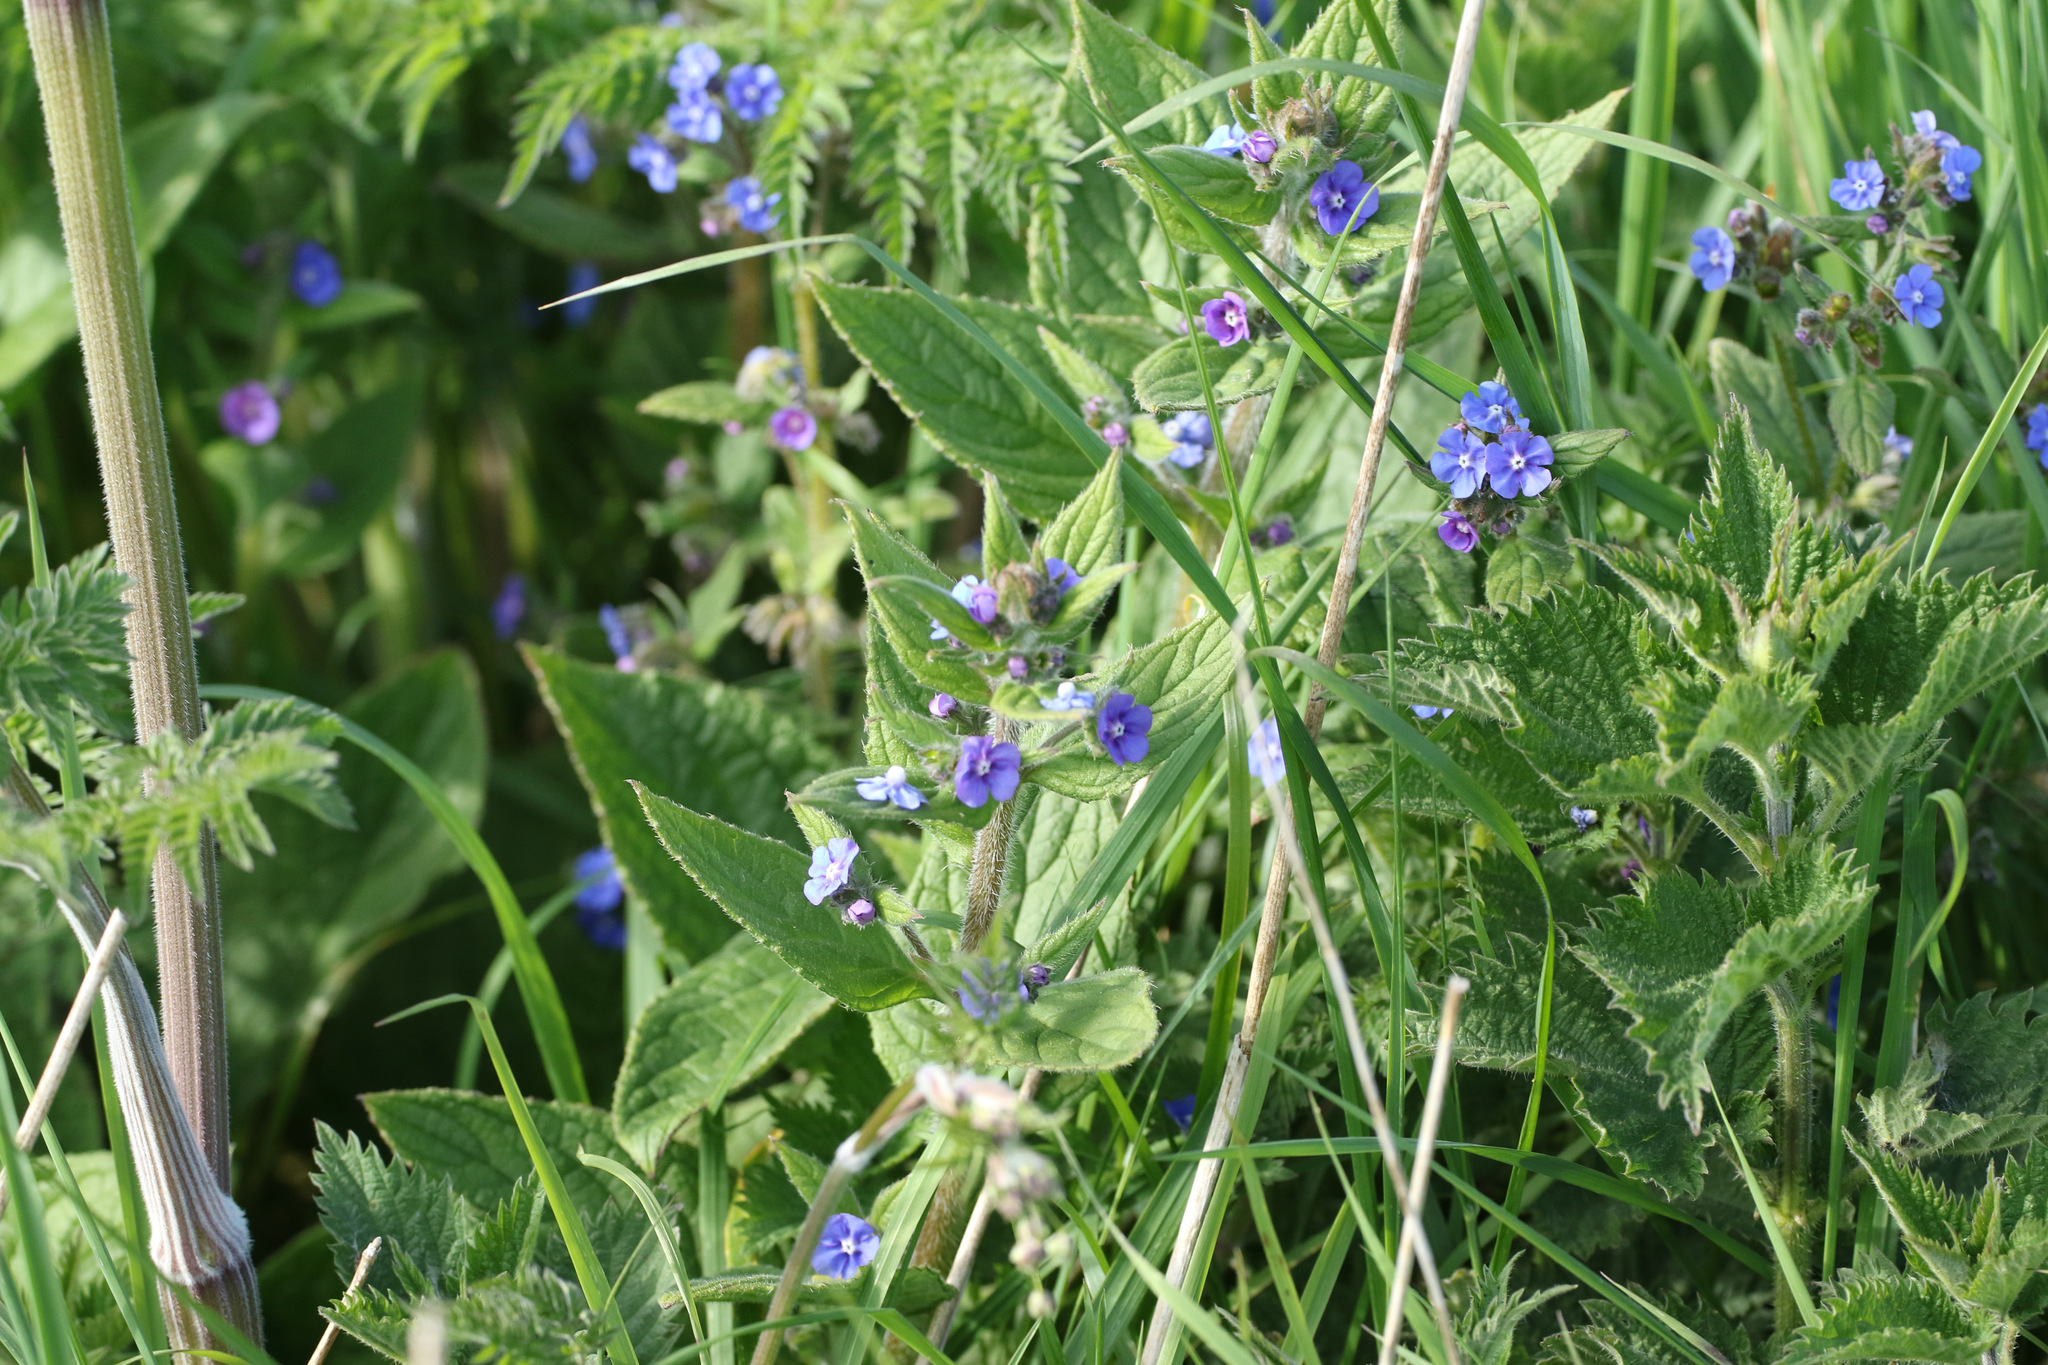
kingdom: Plantae
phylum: Tracheophyta
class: Magnoliopsida
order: Boraginales
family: Boraginaceae
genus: Pentaglottis
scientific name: Pentaglottis sempervirens
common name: Green alkanet
